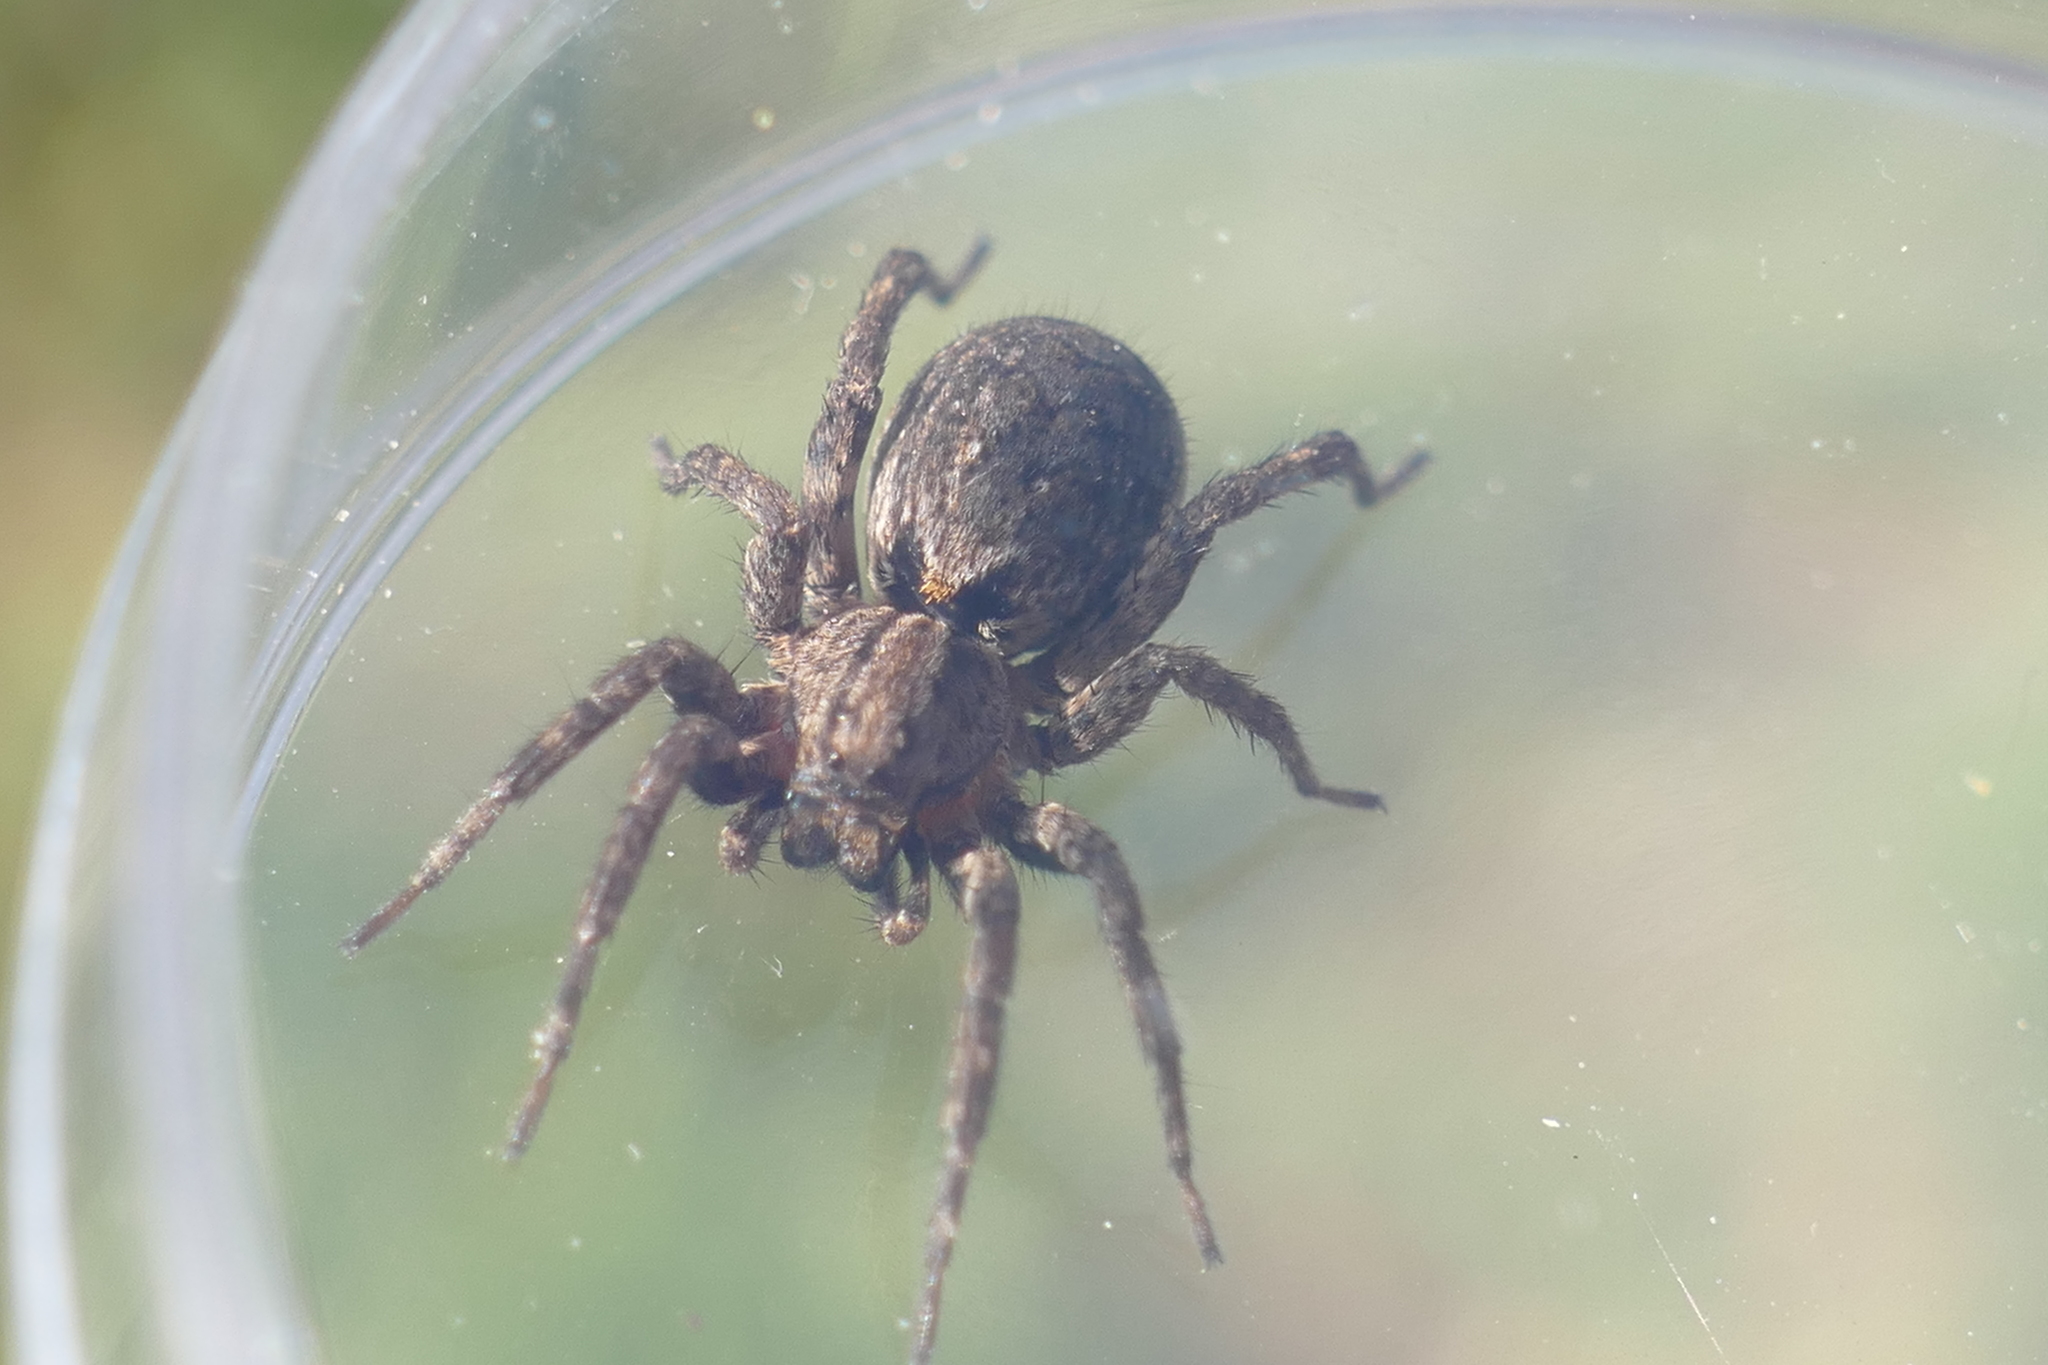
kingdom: Animalia
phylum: Arthropoda
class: Arachnida
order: Araneae
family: Lycosidae
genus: Alopecosa
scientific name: Alopecosa albofasciata
